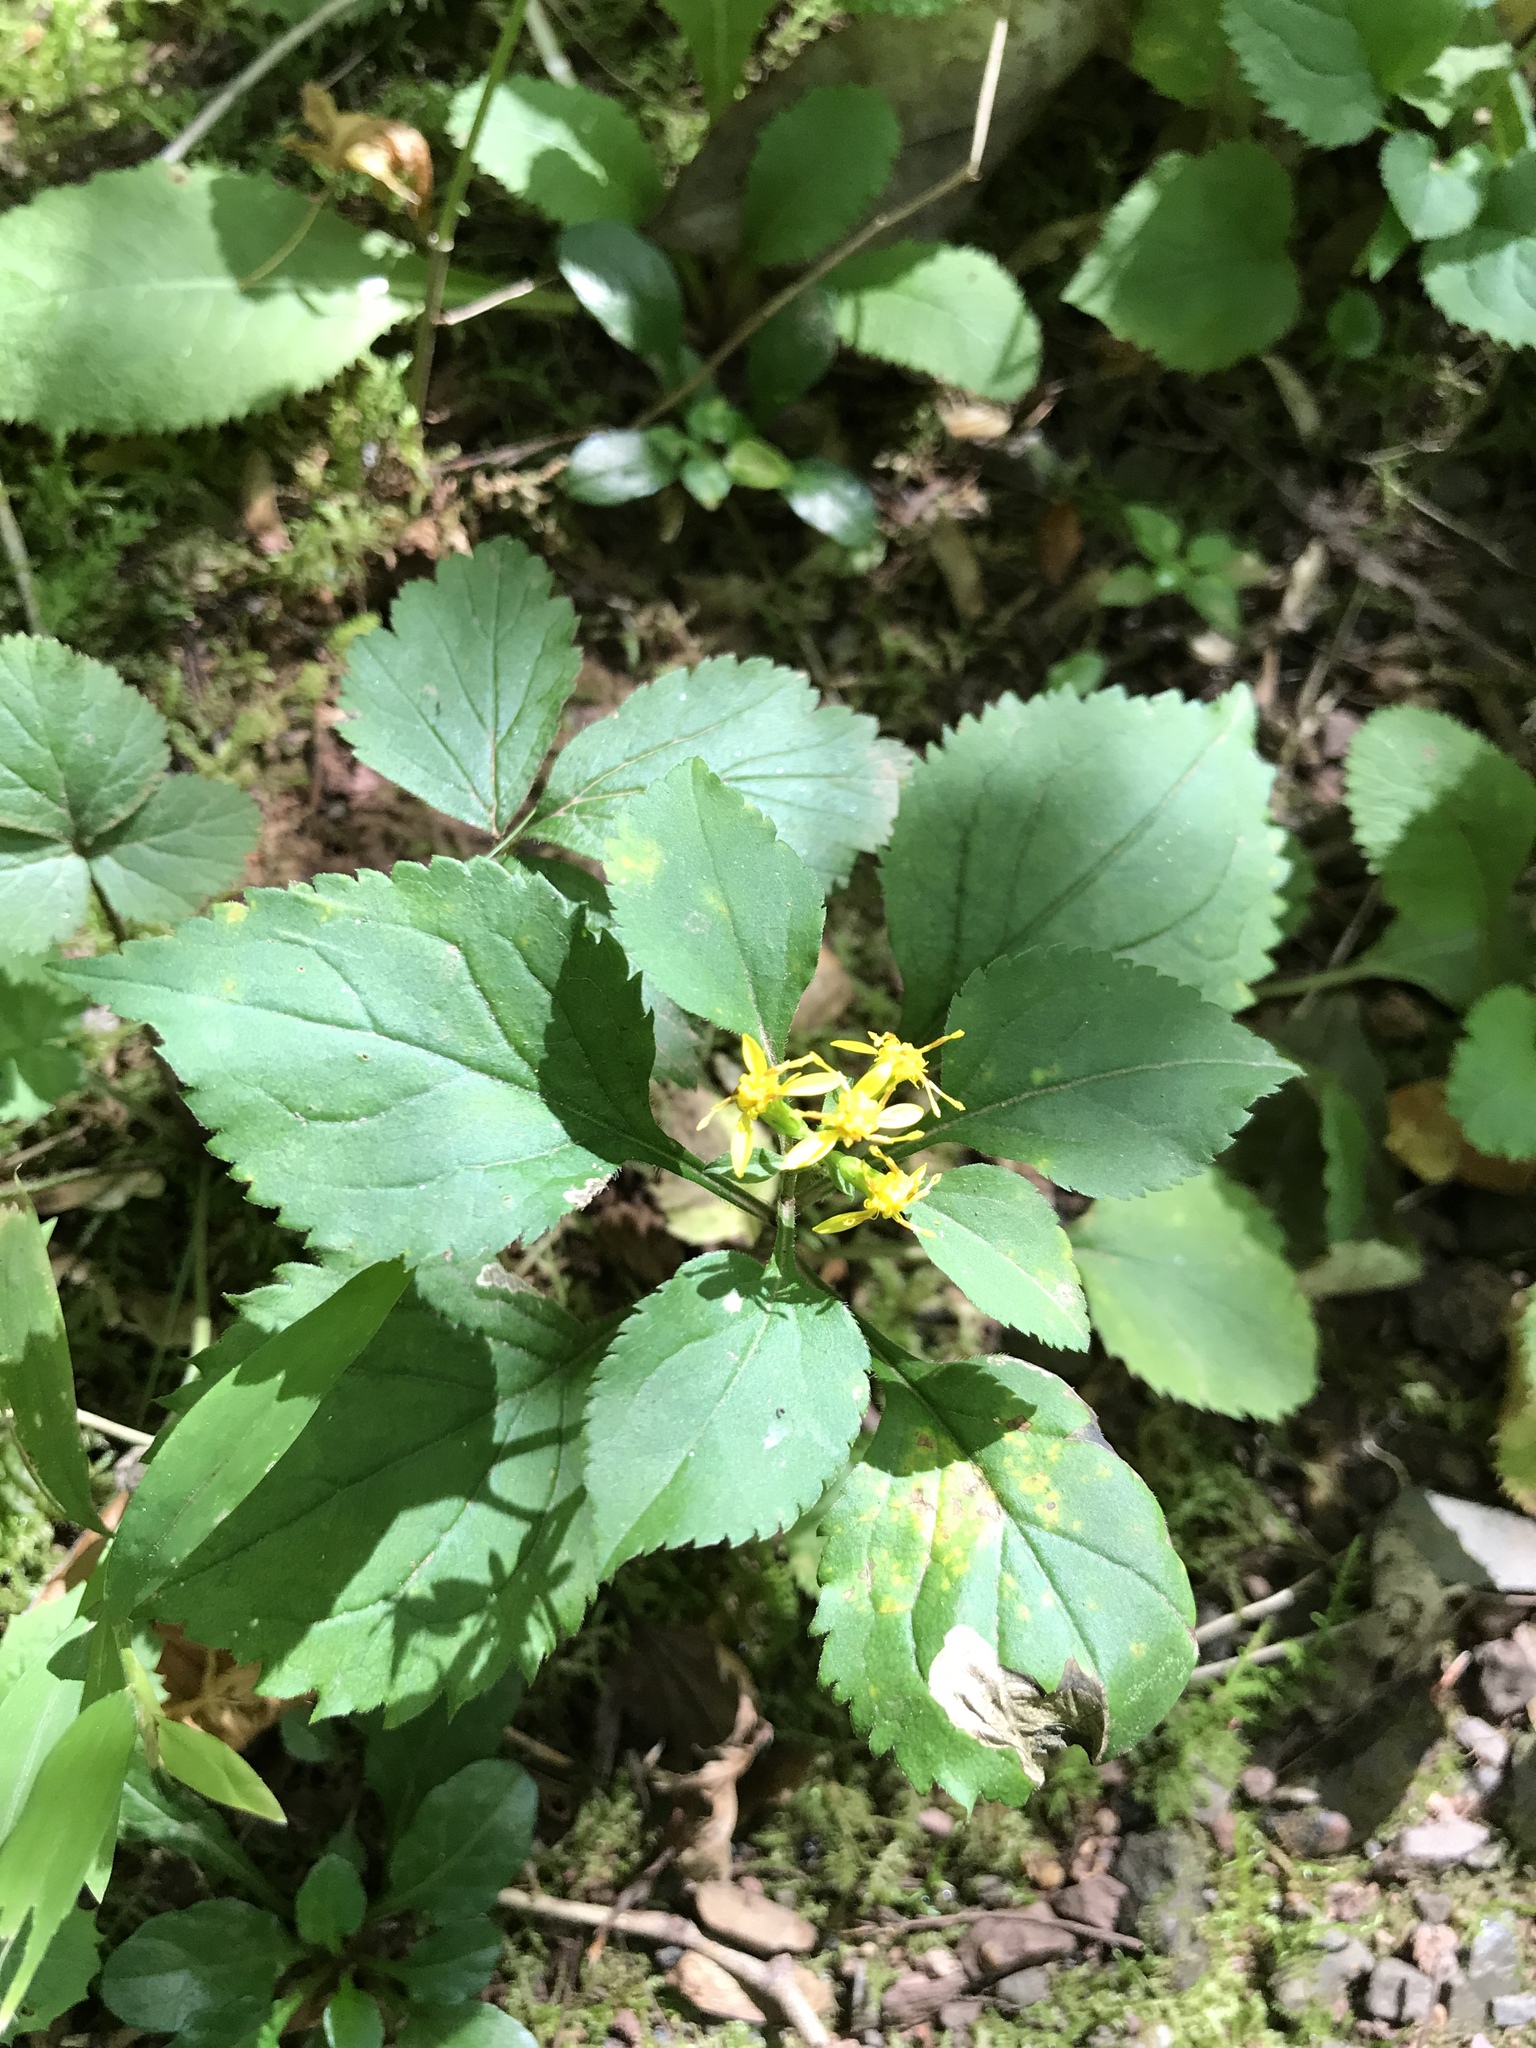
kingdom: Plantae
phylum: Tracheophyta
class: Magnoliopsida
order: Asterales
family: Asteraceae
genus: Solidago
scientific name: Solidago flexicaulis
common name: Zig-zag goldenrod
